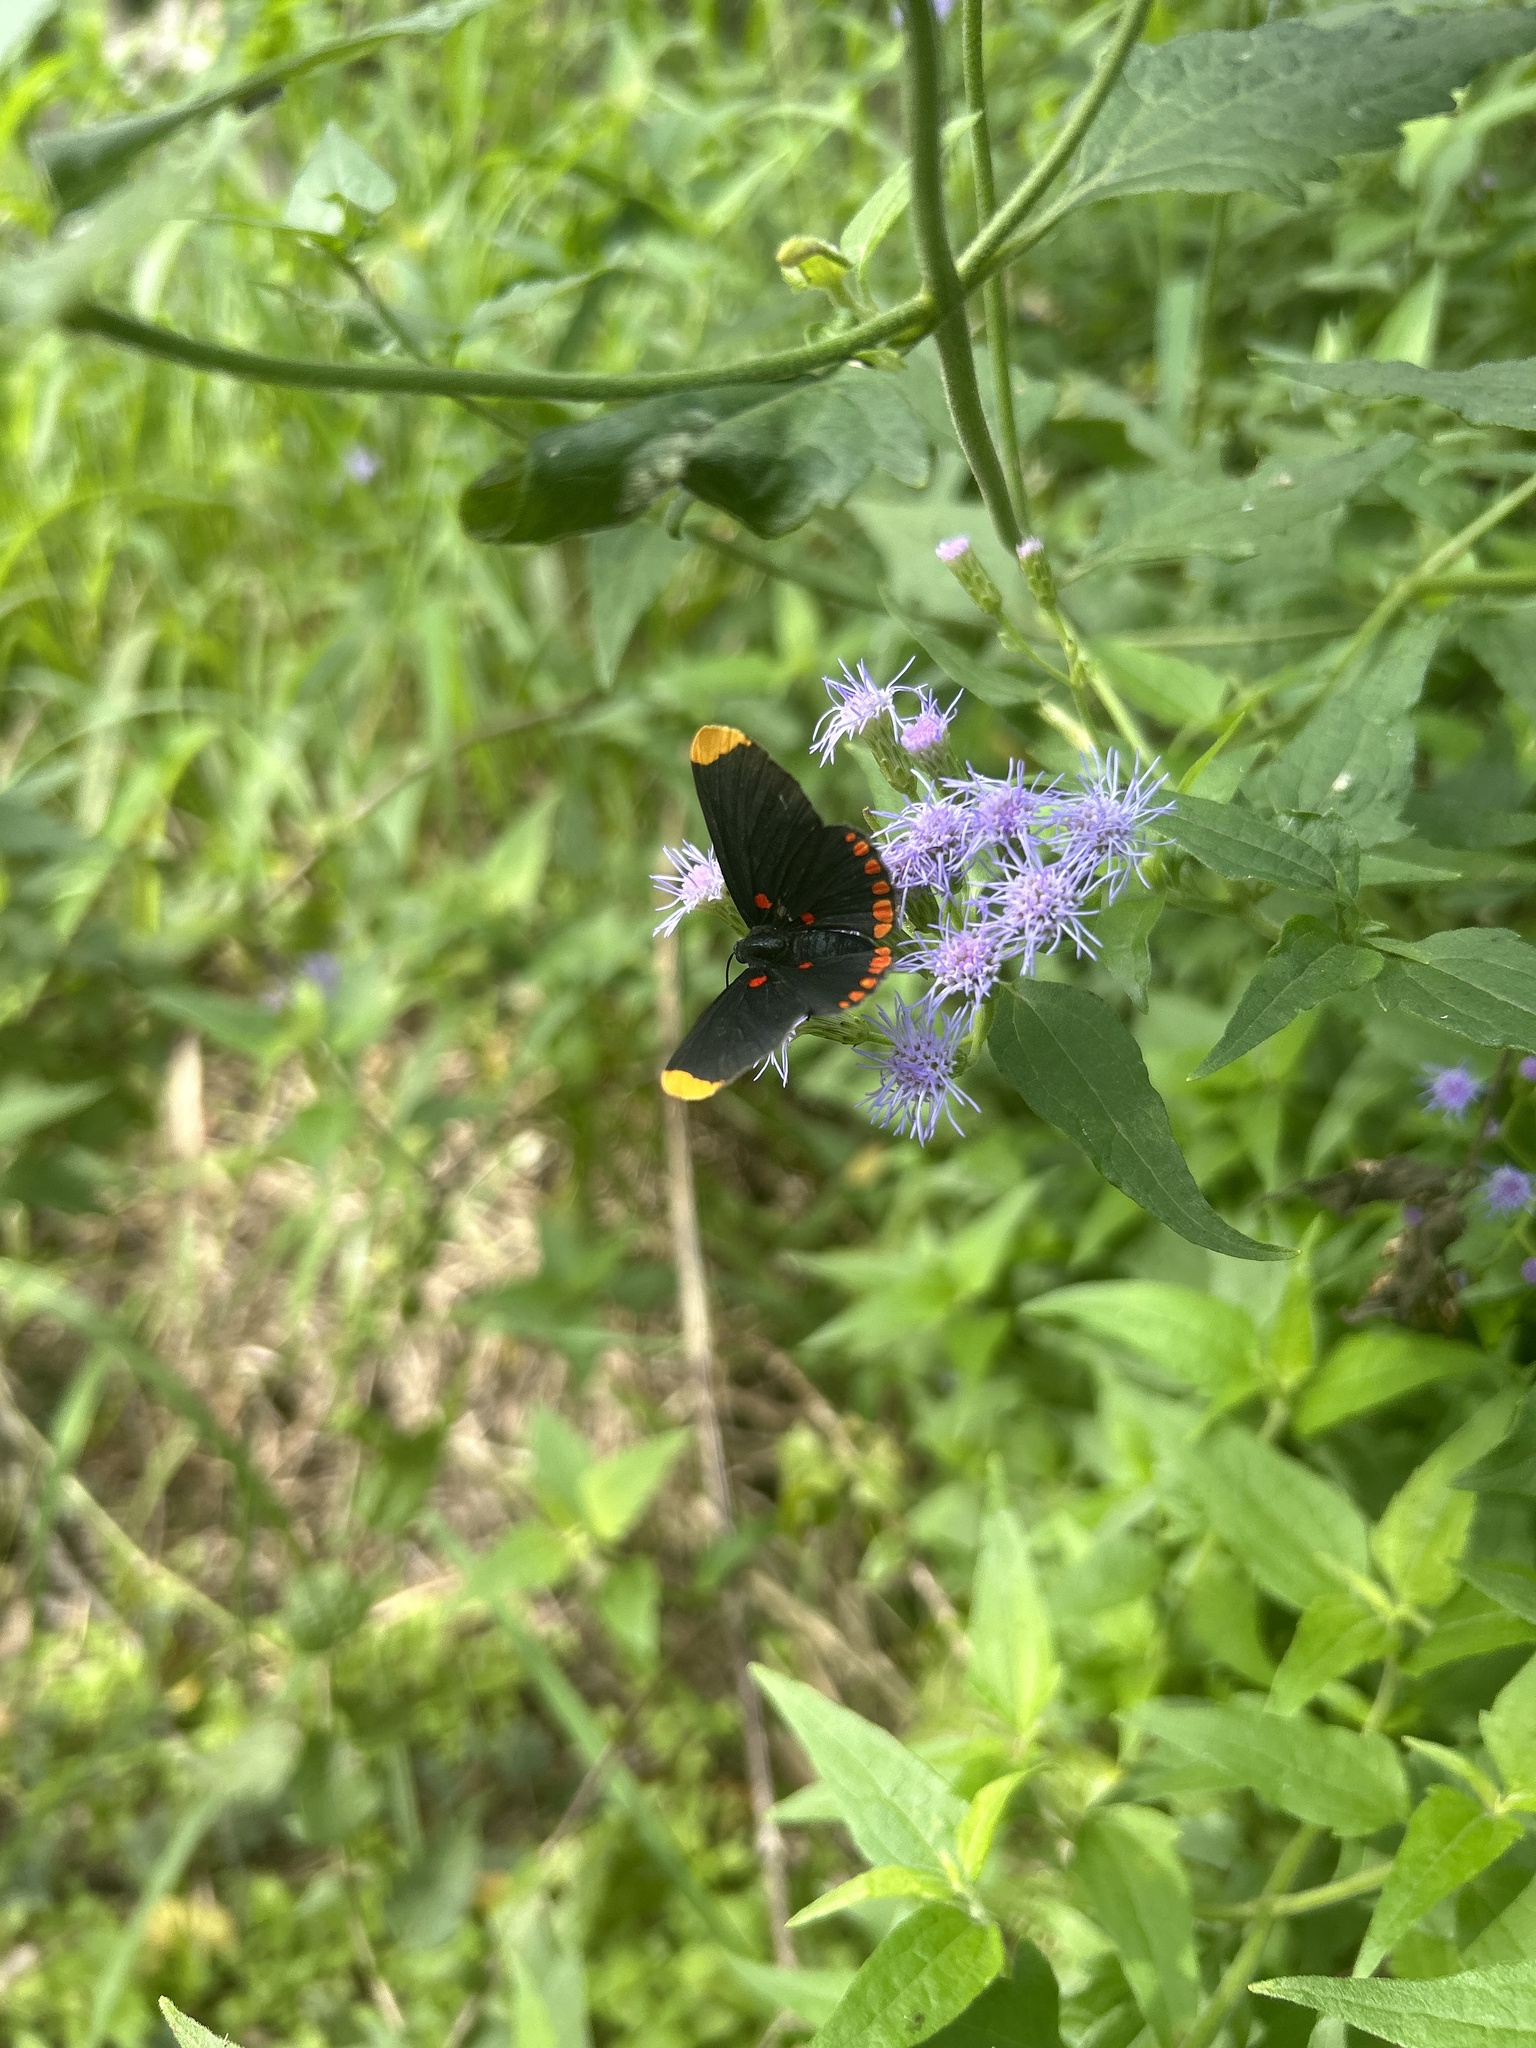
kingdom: Animalia
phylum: Arthropoda
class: Insecta
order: Lepidoptera
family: Lycaenidae
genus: Melanis
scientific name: Melanis pixe
